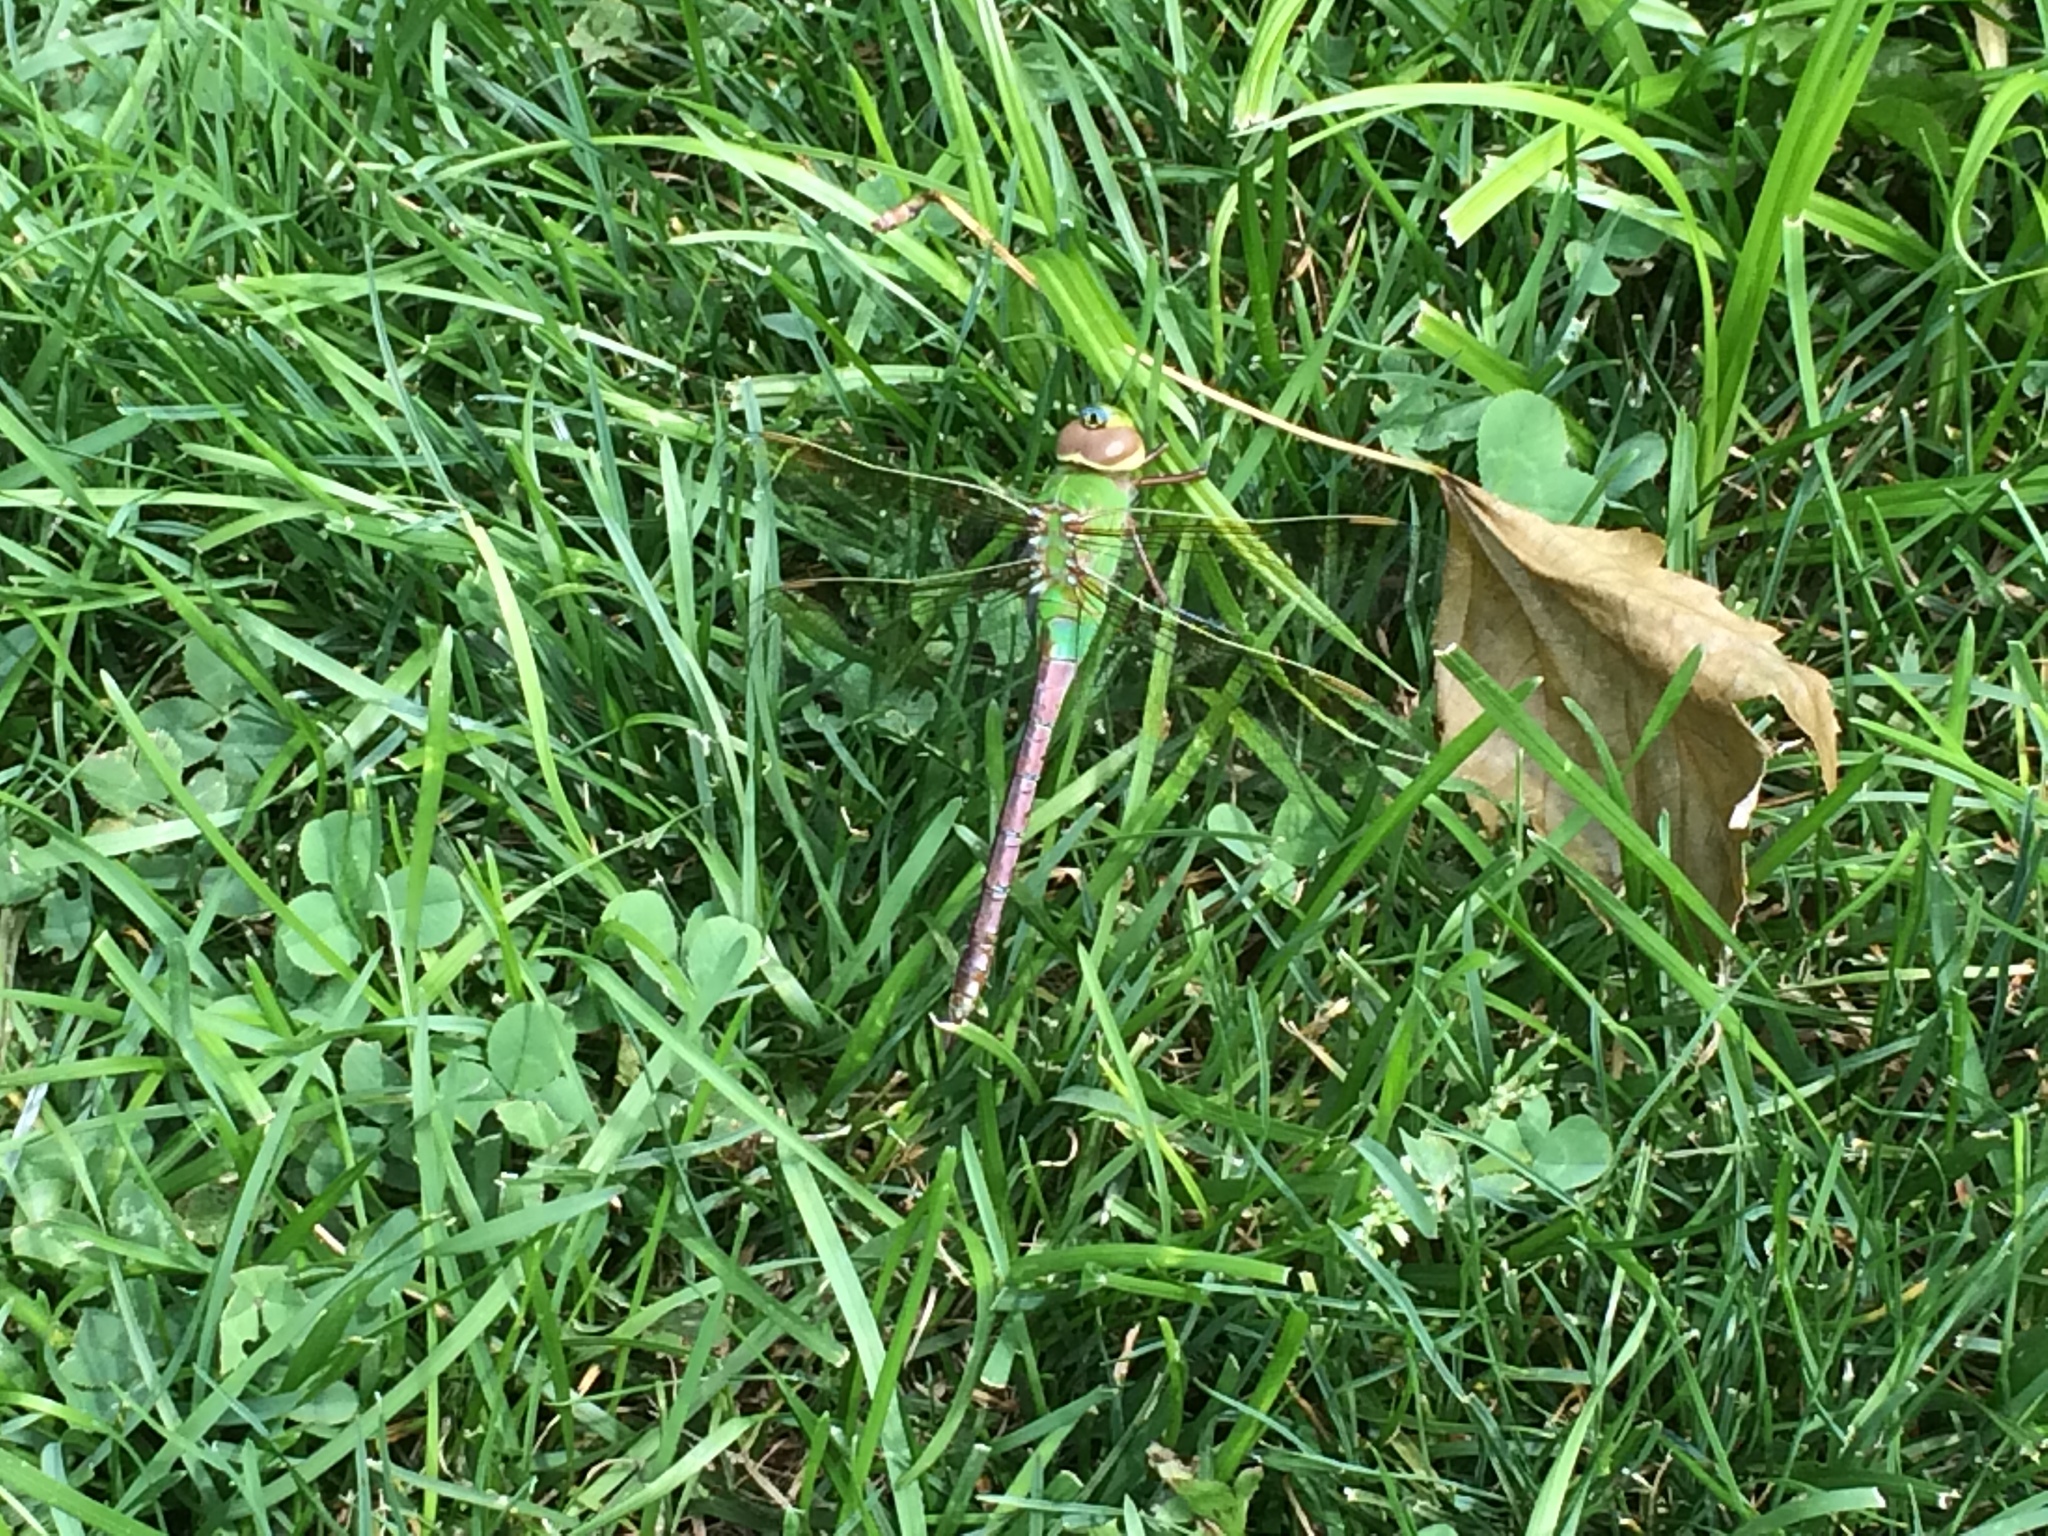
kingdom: Animalia
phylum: Arthropoda
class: Insecta
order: Odonata
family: Aeshnidae
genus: Anax
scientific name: Anax junius
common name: Common green darner
